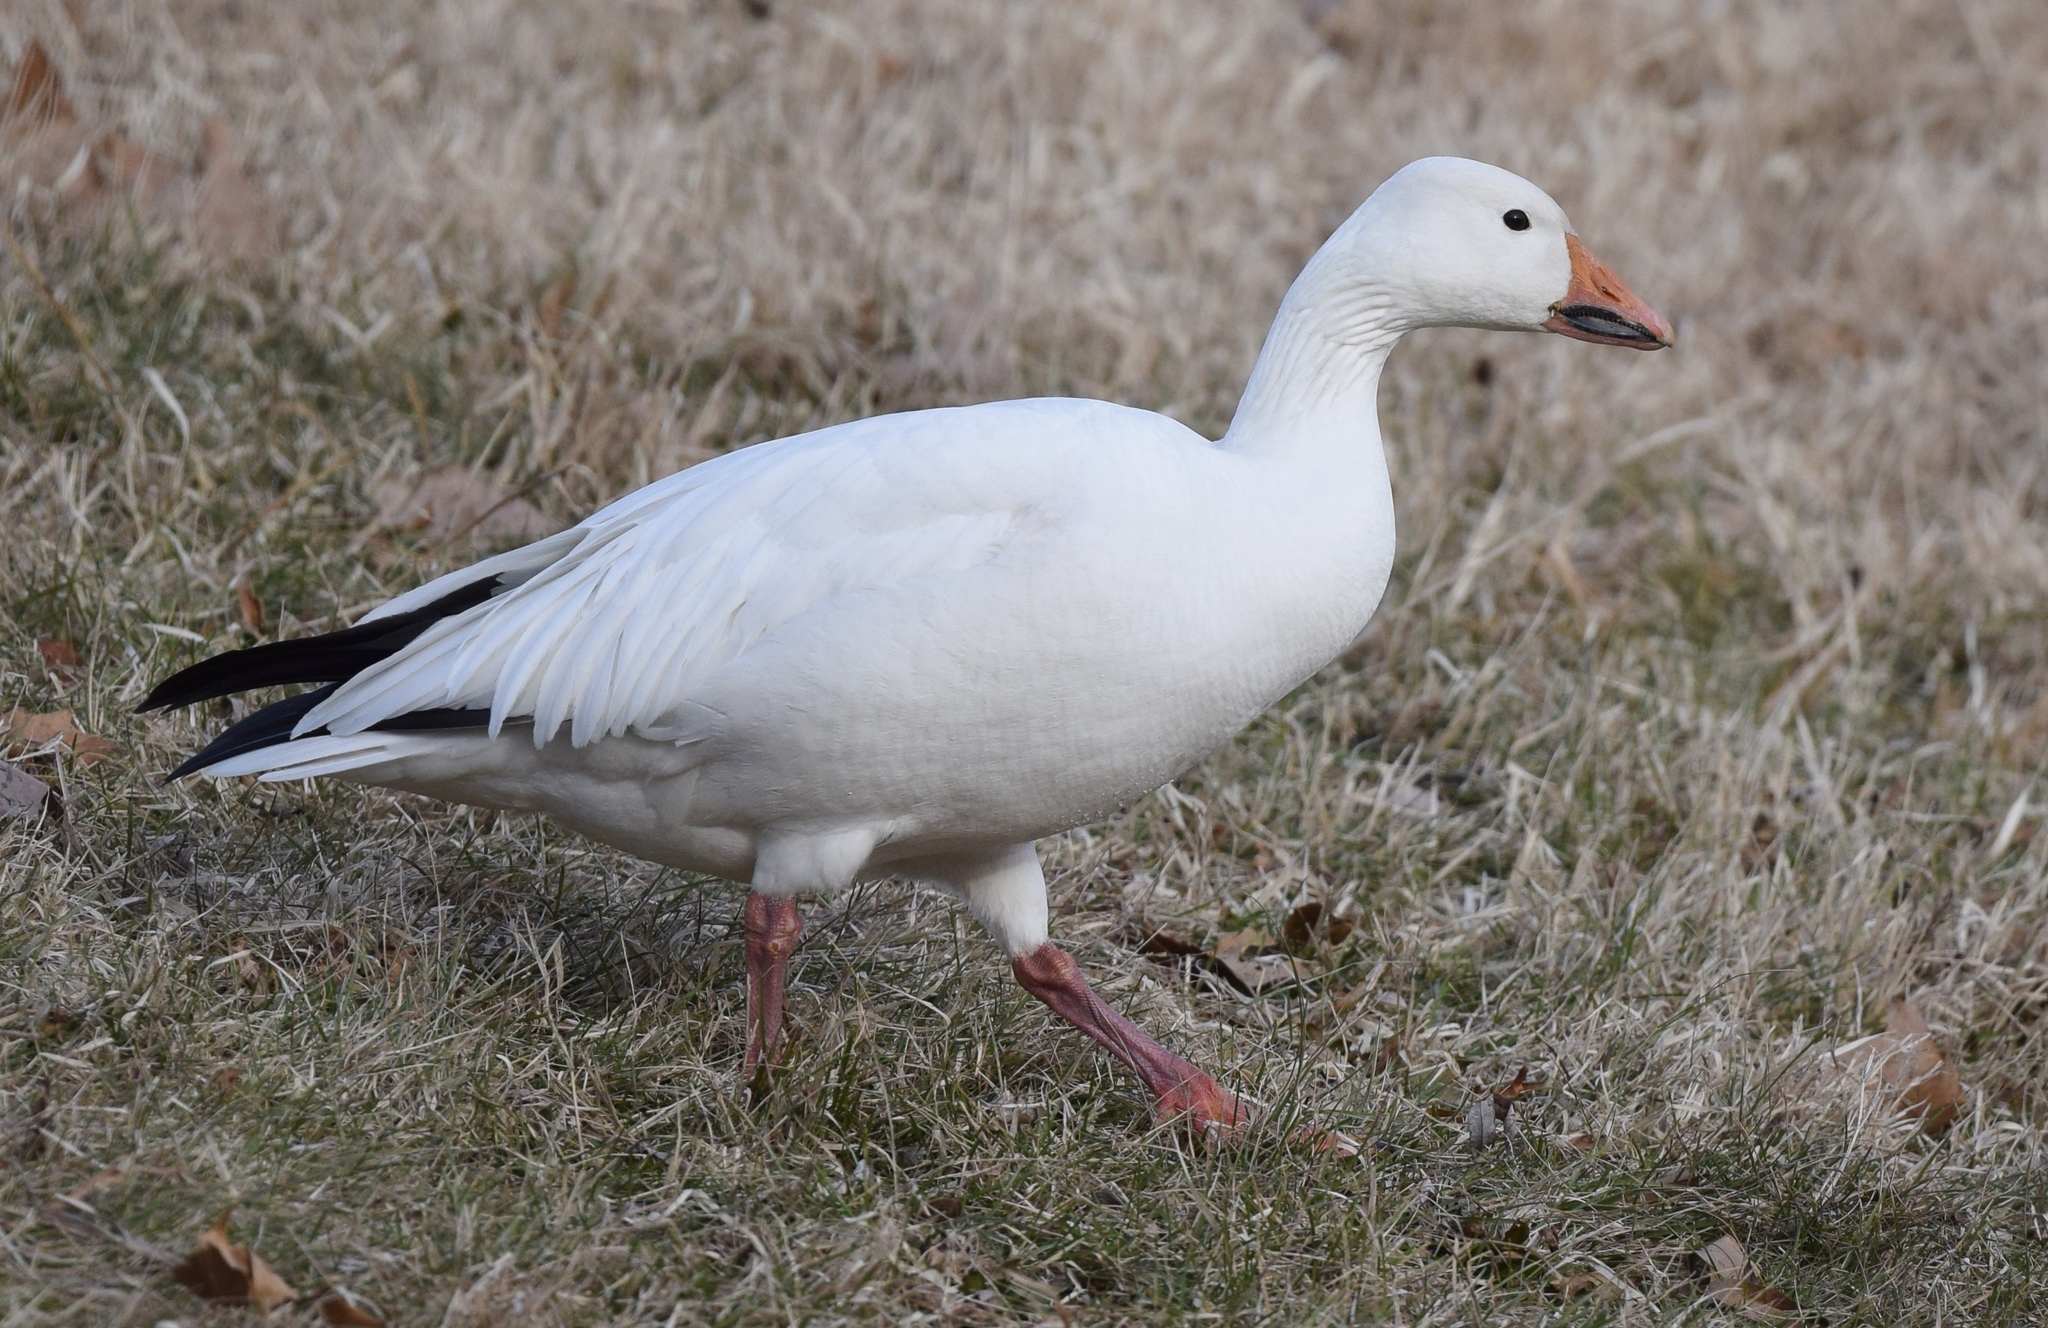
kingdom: Animalia
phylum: Chordata
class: Aves
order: Anseriformes
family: Anatidae
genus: Anser
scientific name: Anser caerulescens
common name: Snow goose
